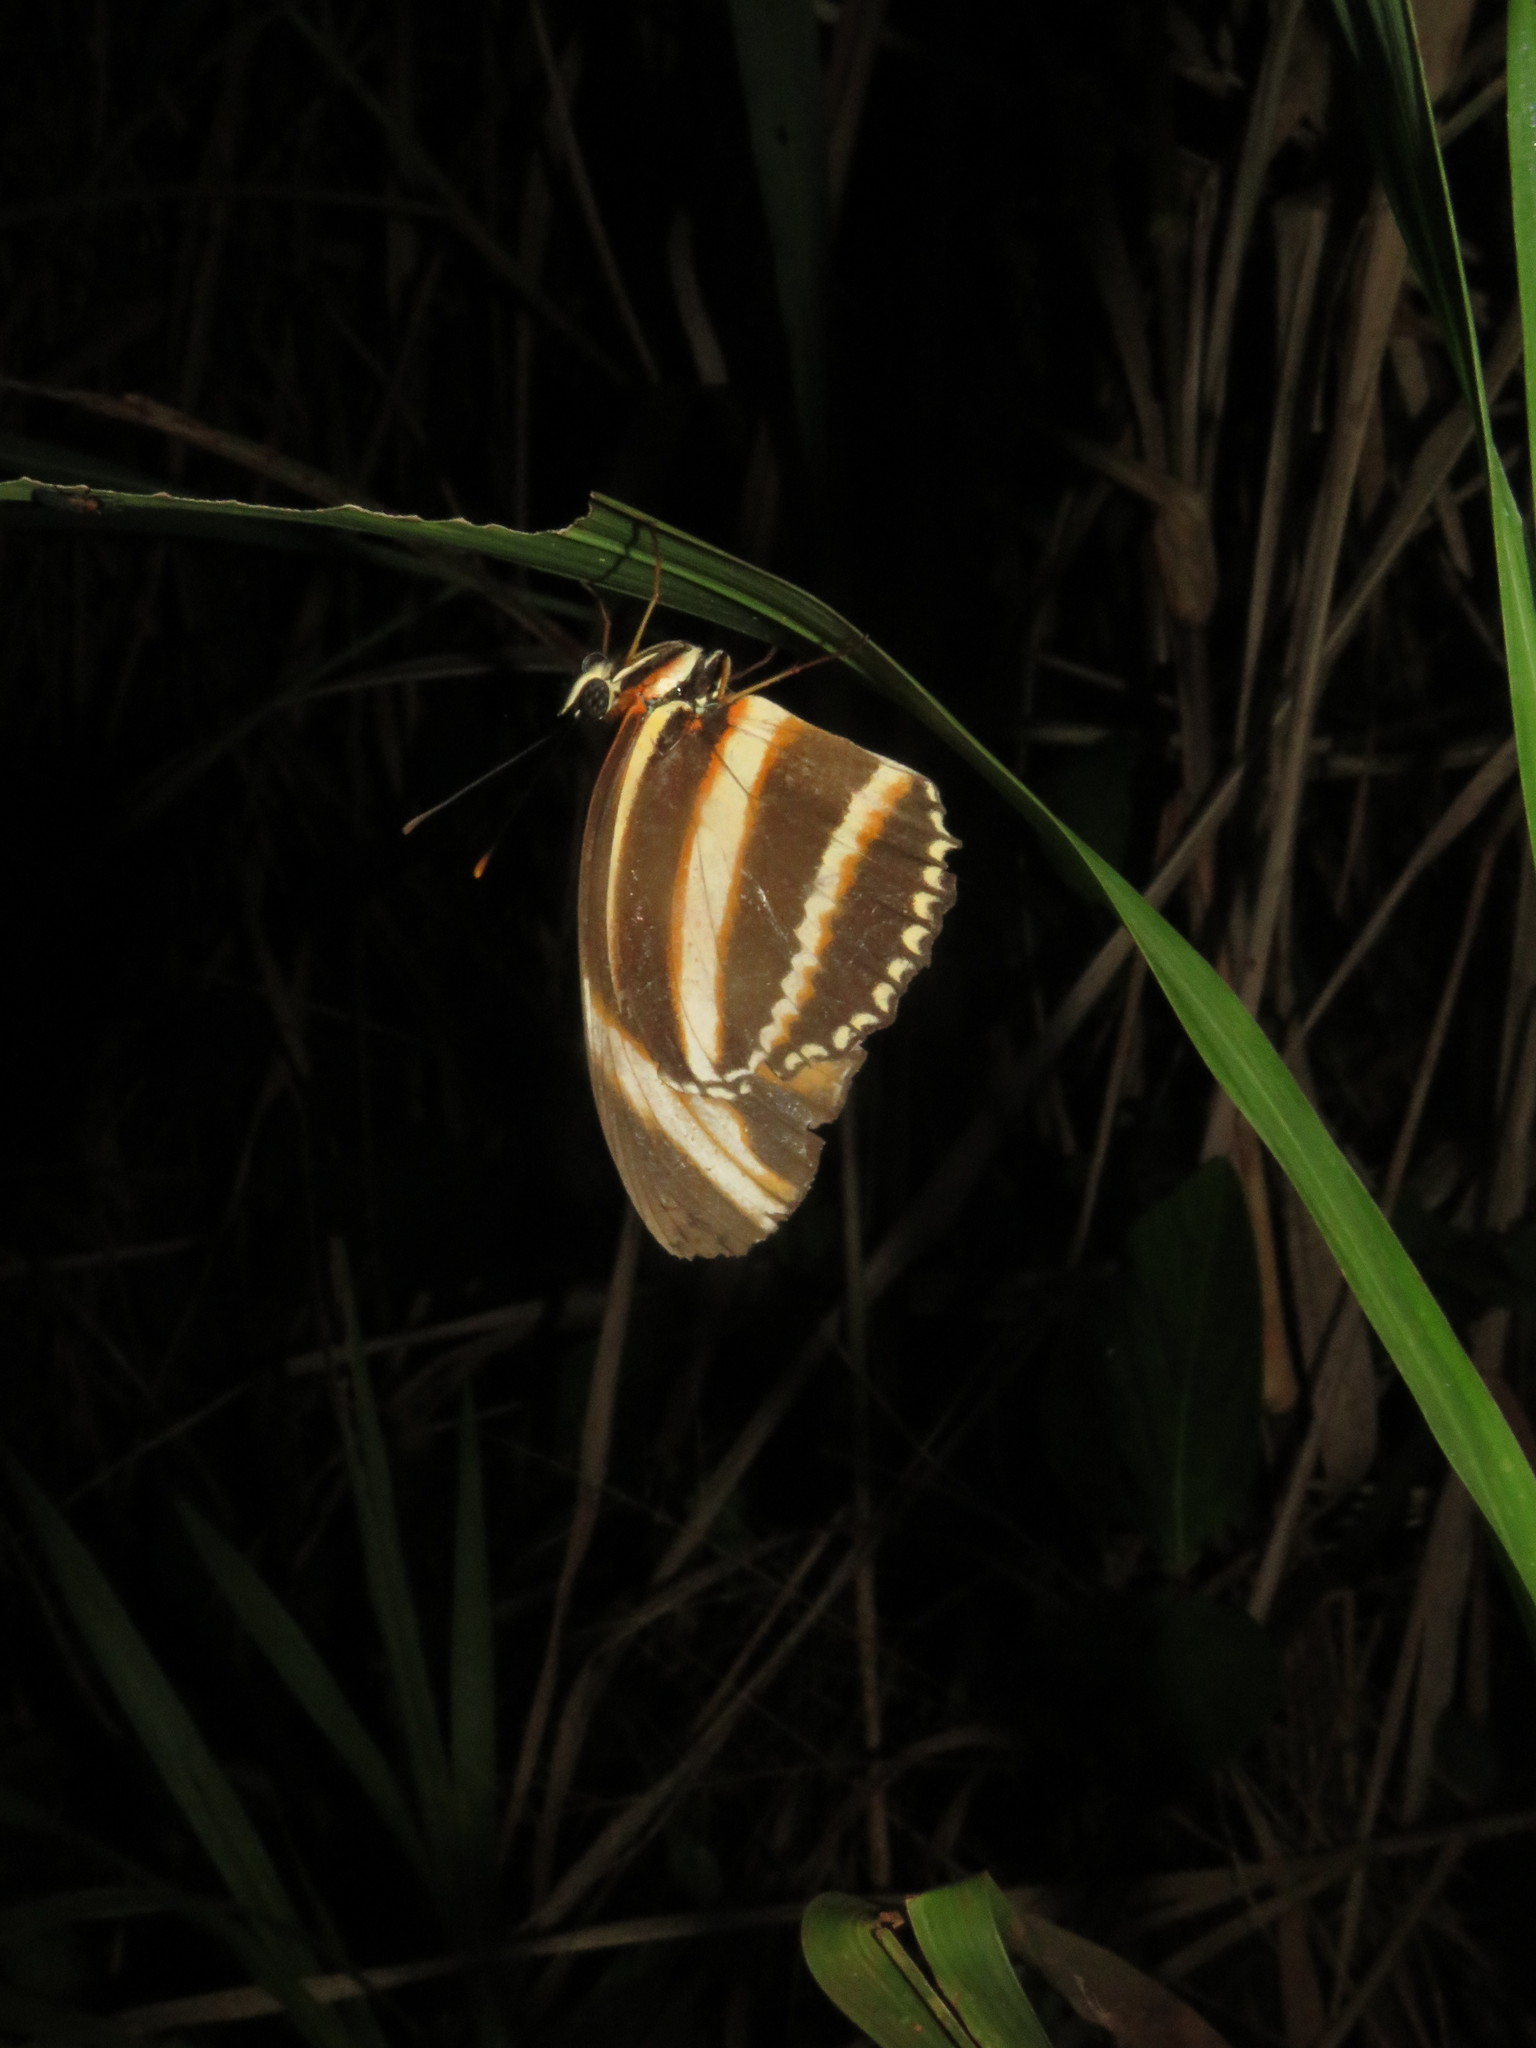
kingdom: Animalia
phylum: Arthropoda
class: Insecta
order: Lepidoptera
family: Nymphalidae
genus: Dryadula
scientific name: Dryadula phaetusa
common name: Banded orange heliconian
